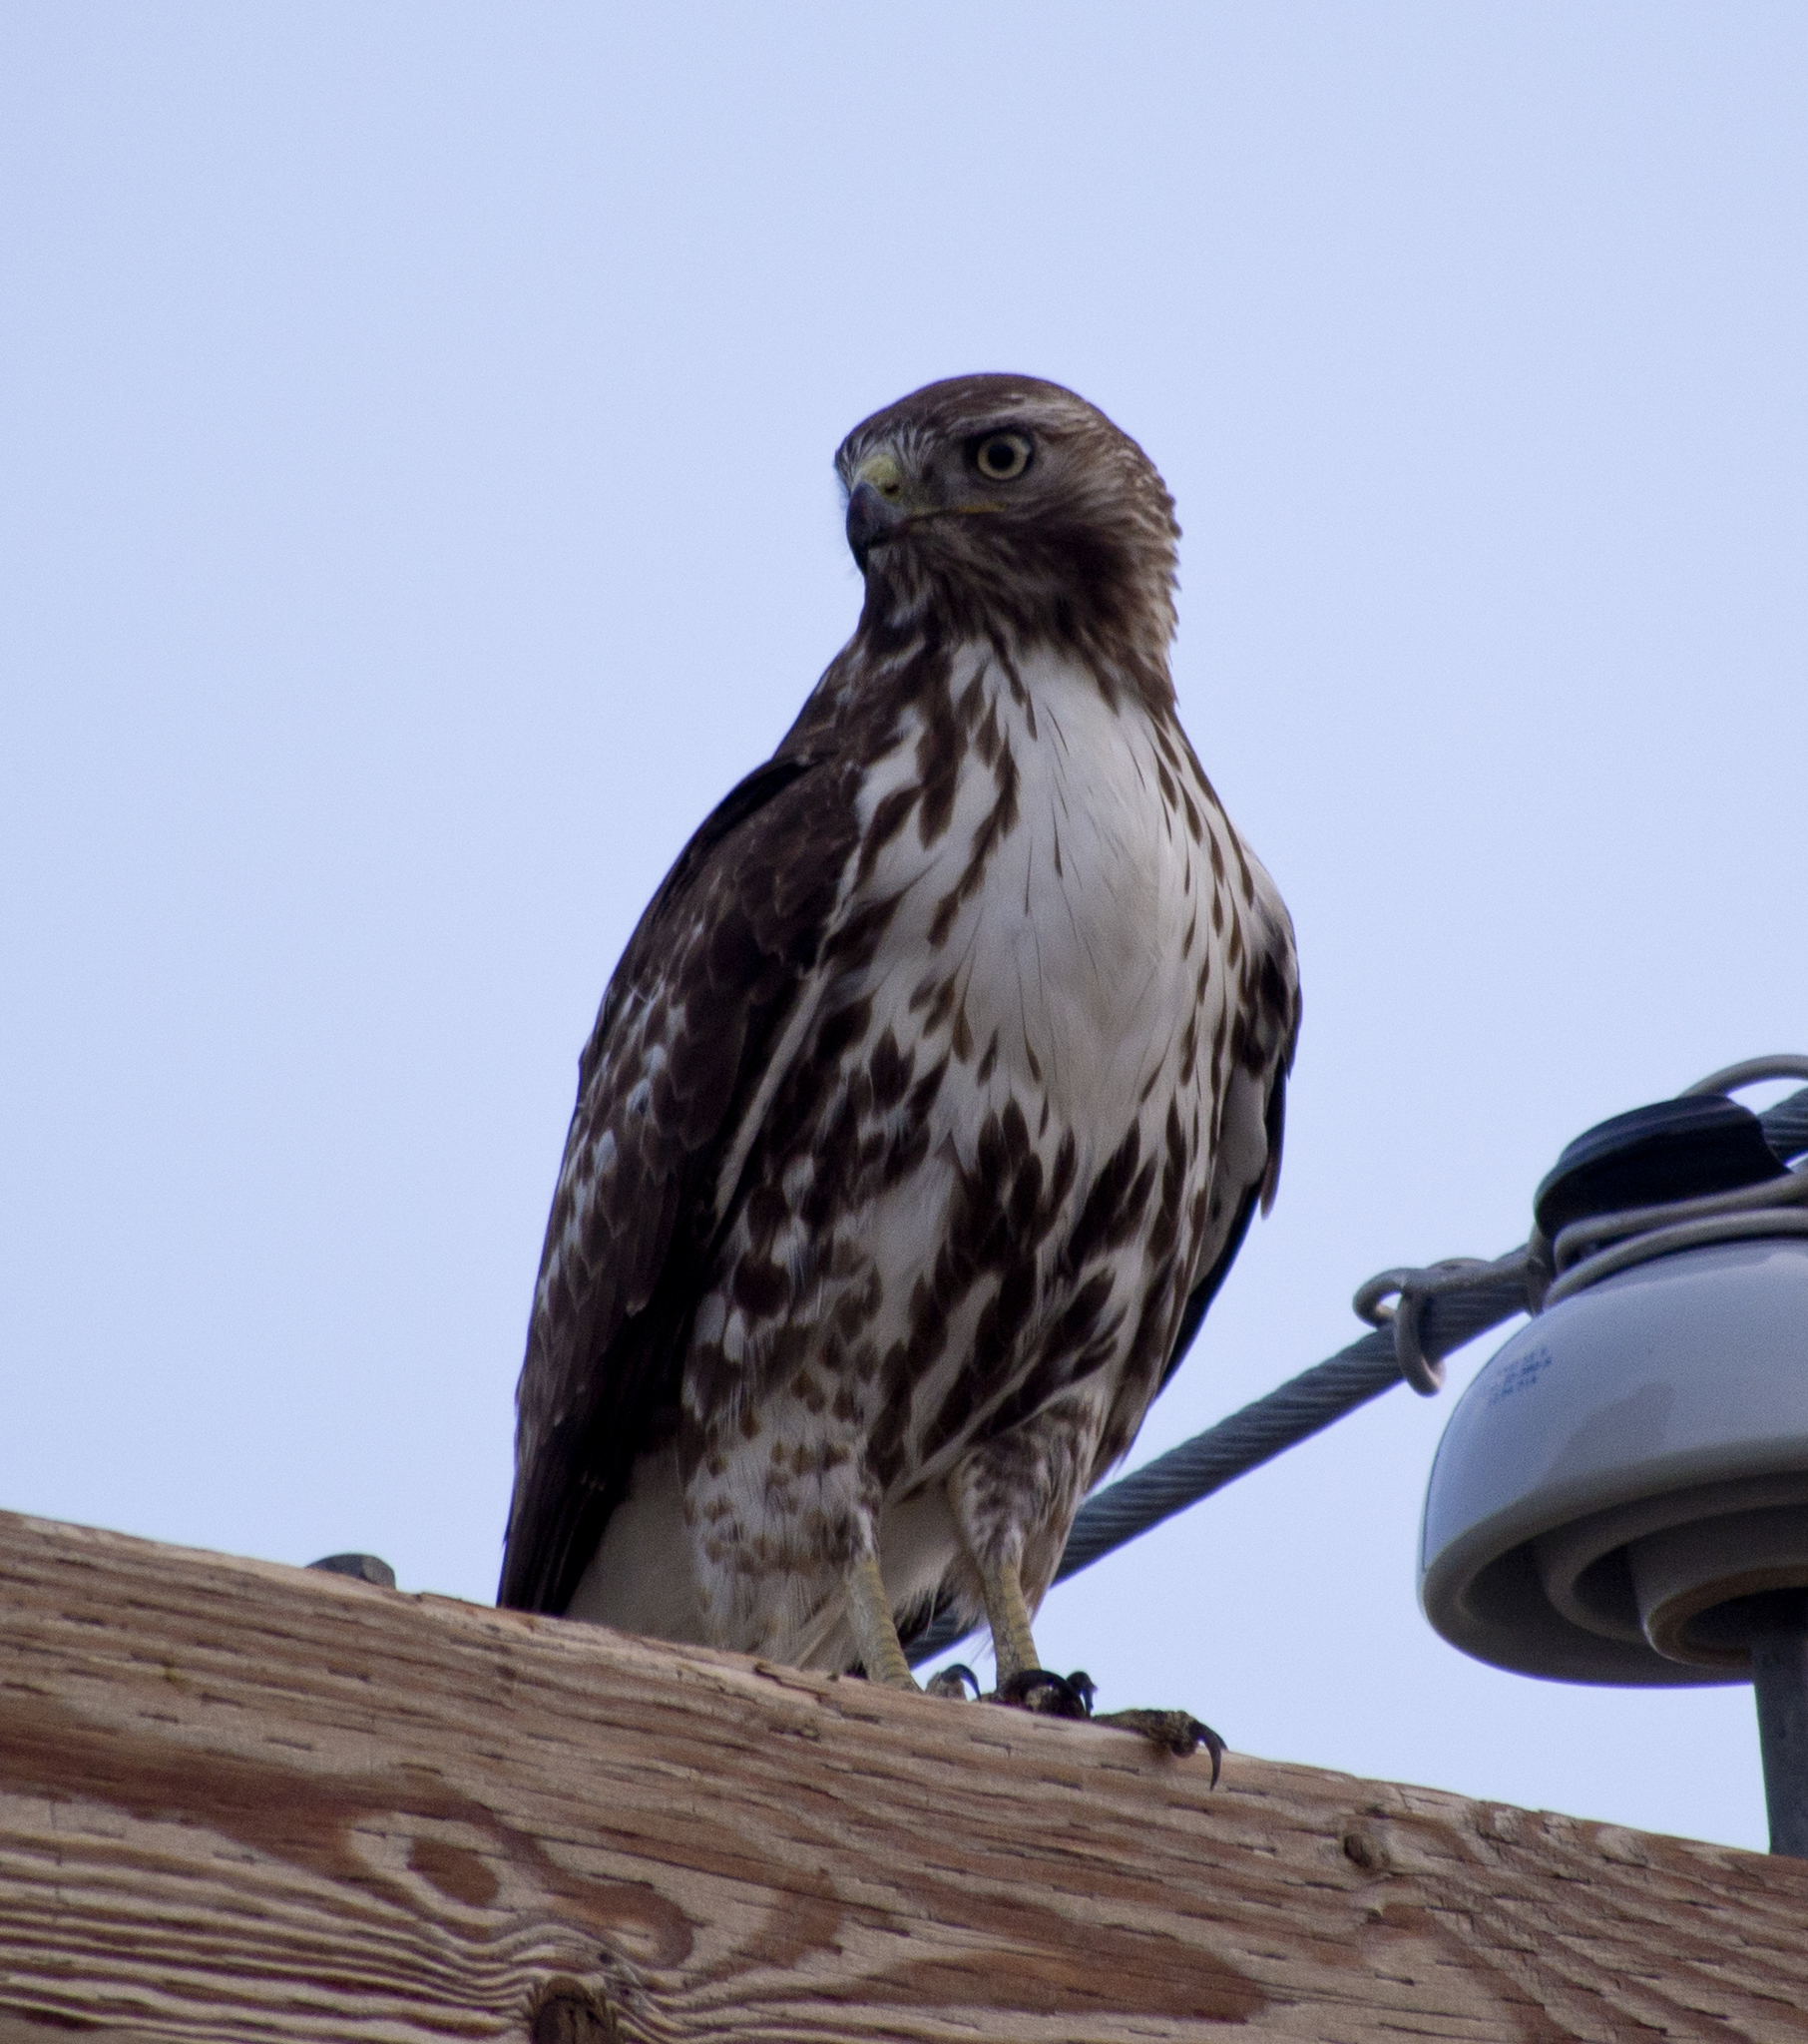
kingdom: Animalia
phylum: Chordata
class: Aves
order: Accipitriformes
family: Accipitridae
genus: Buteo
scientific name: Buteo jamaicensis
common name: Red-tailed hawk
